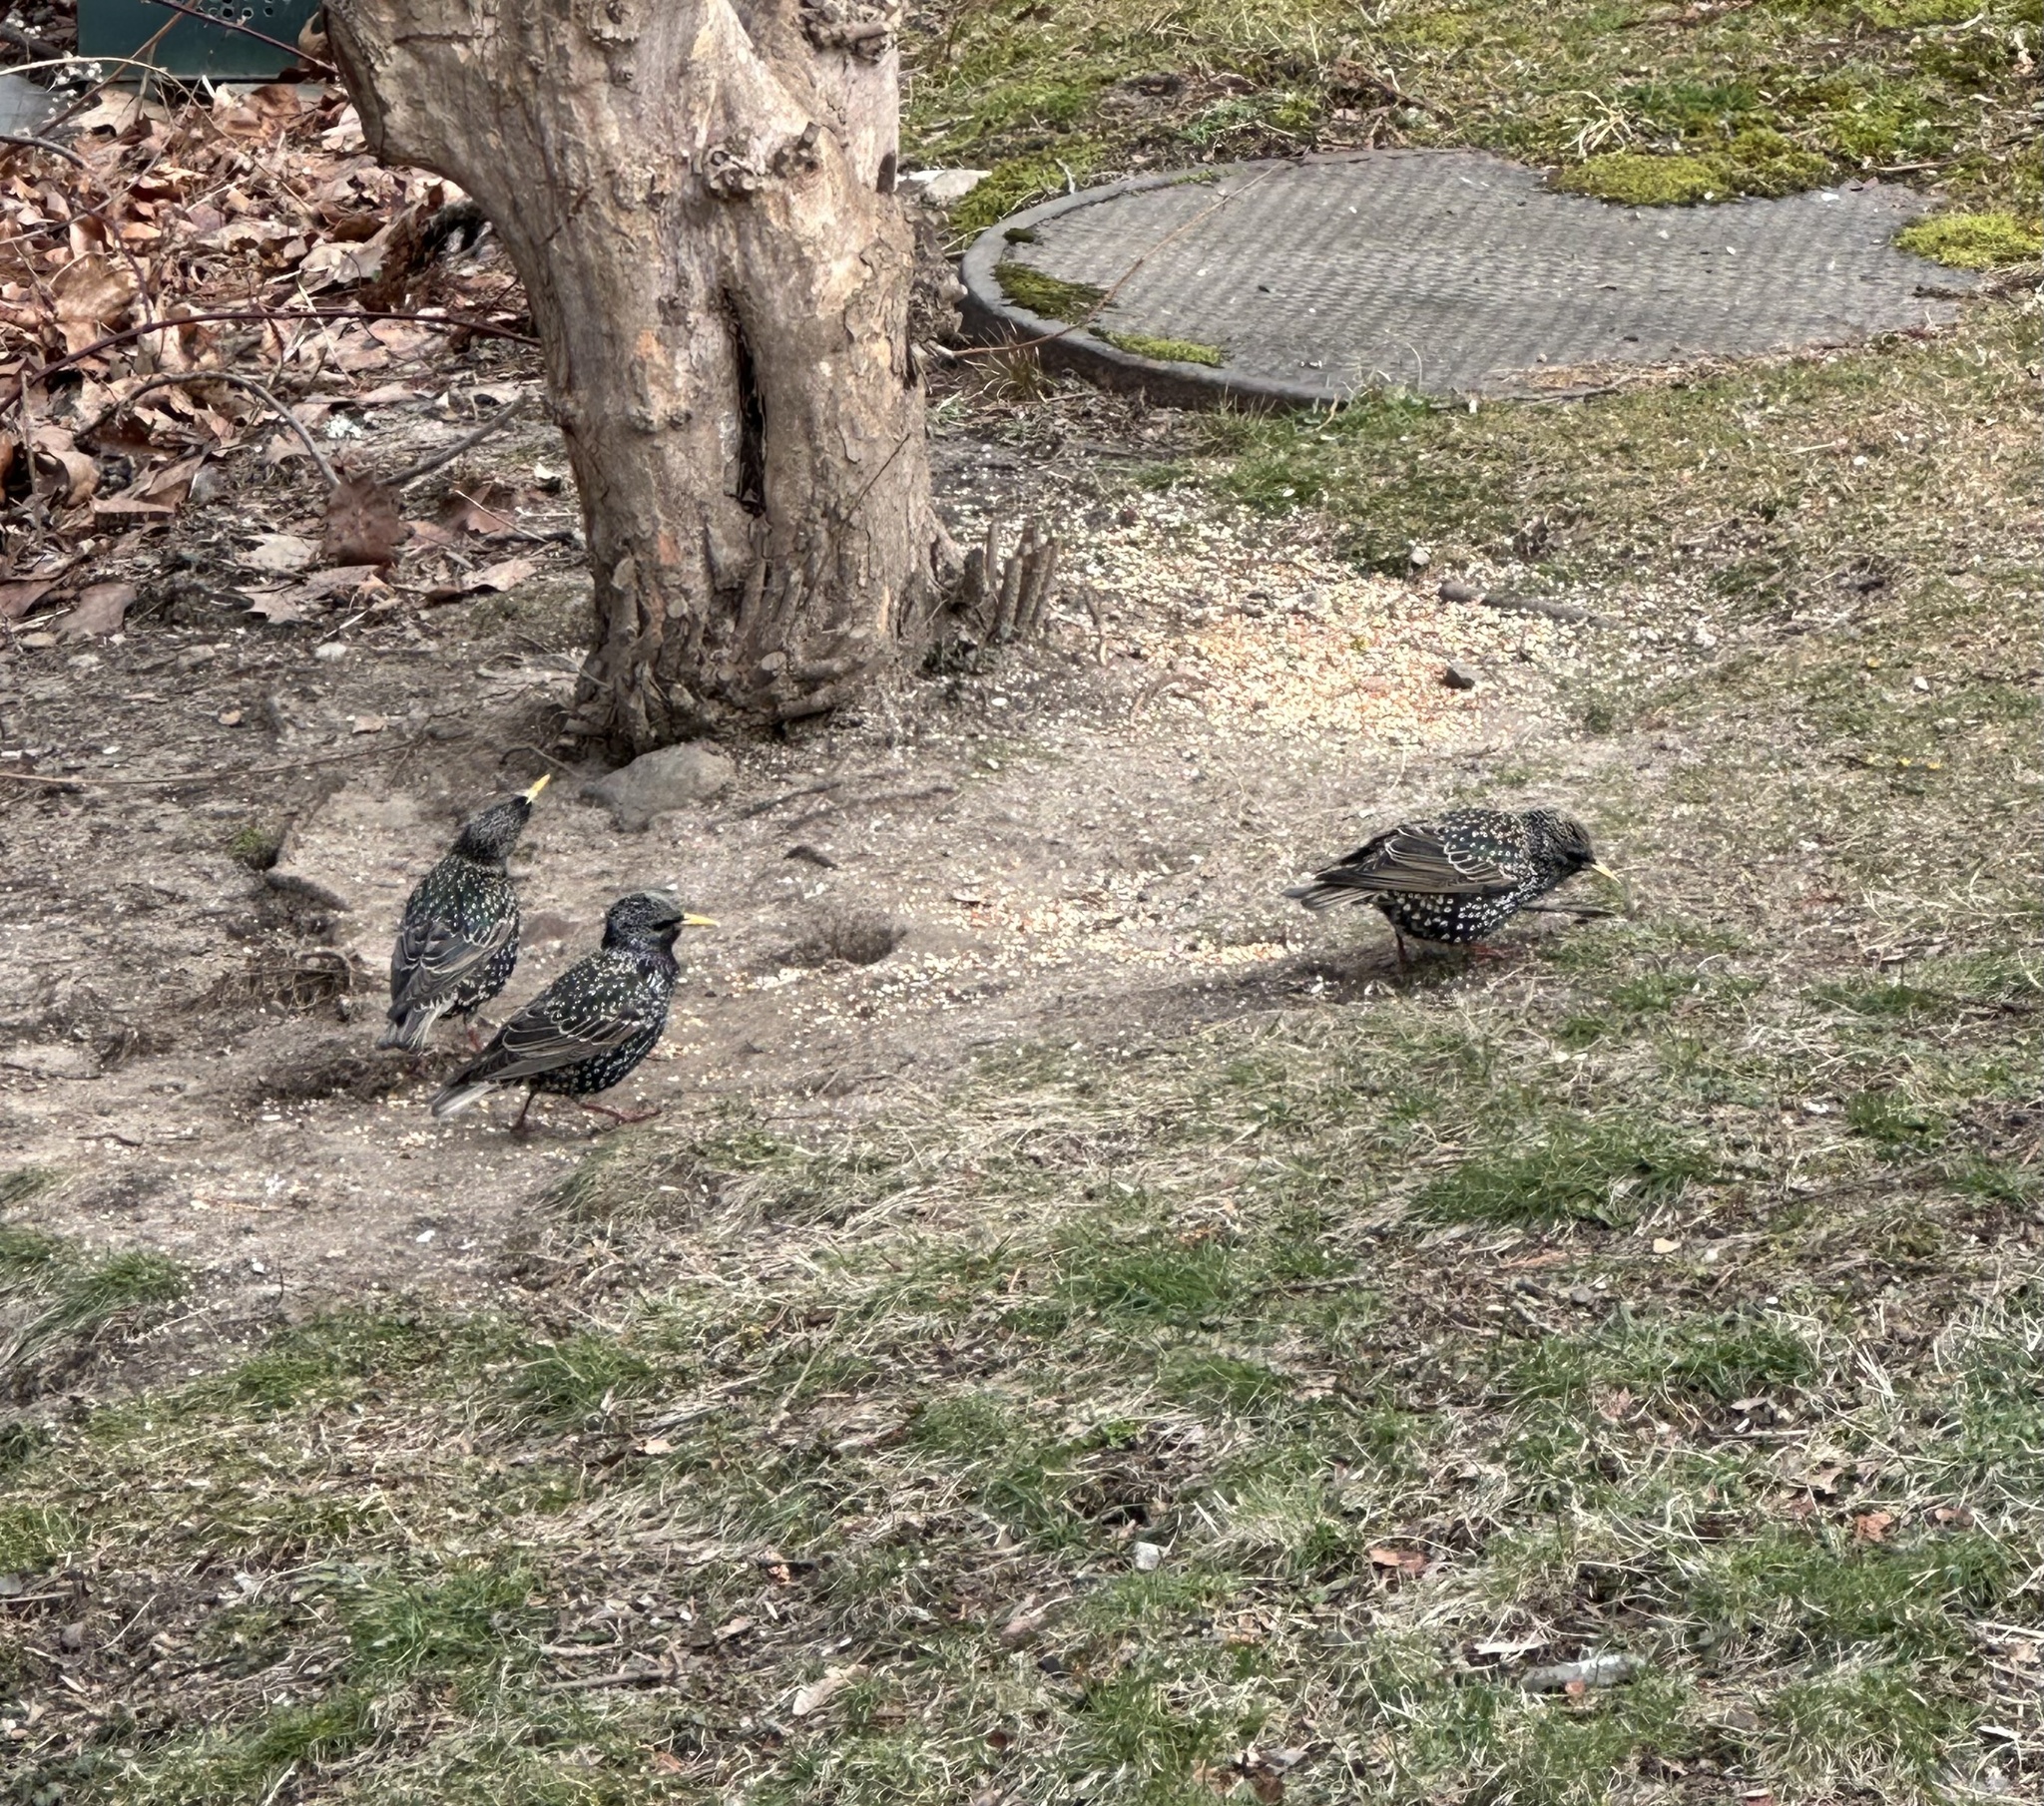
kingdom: Animalia
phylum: Chordata
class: Aves
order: Passeriformes
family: Sturnidae
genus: Sturnus
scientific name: Sturnus vulgaris
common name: Common starling
